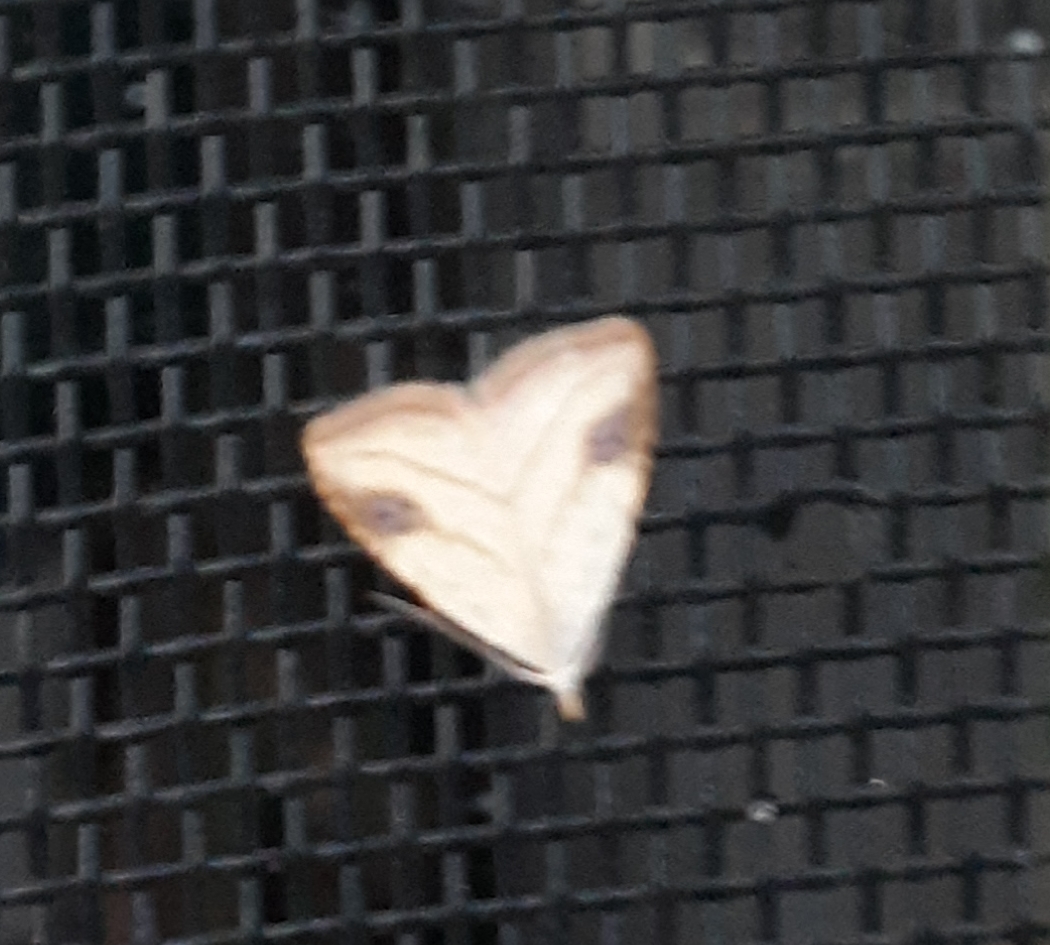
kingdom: Animalia
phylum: Arthropoda
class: Insecta
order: Lepidoptera
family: Erebidae
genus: Rivula
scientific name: Rivula propinqualis
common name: Spotted grass moth
